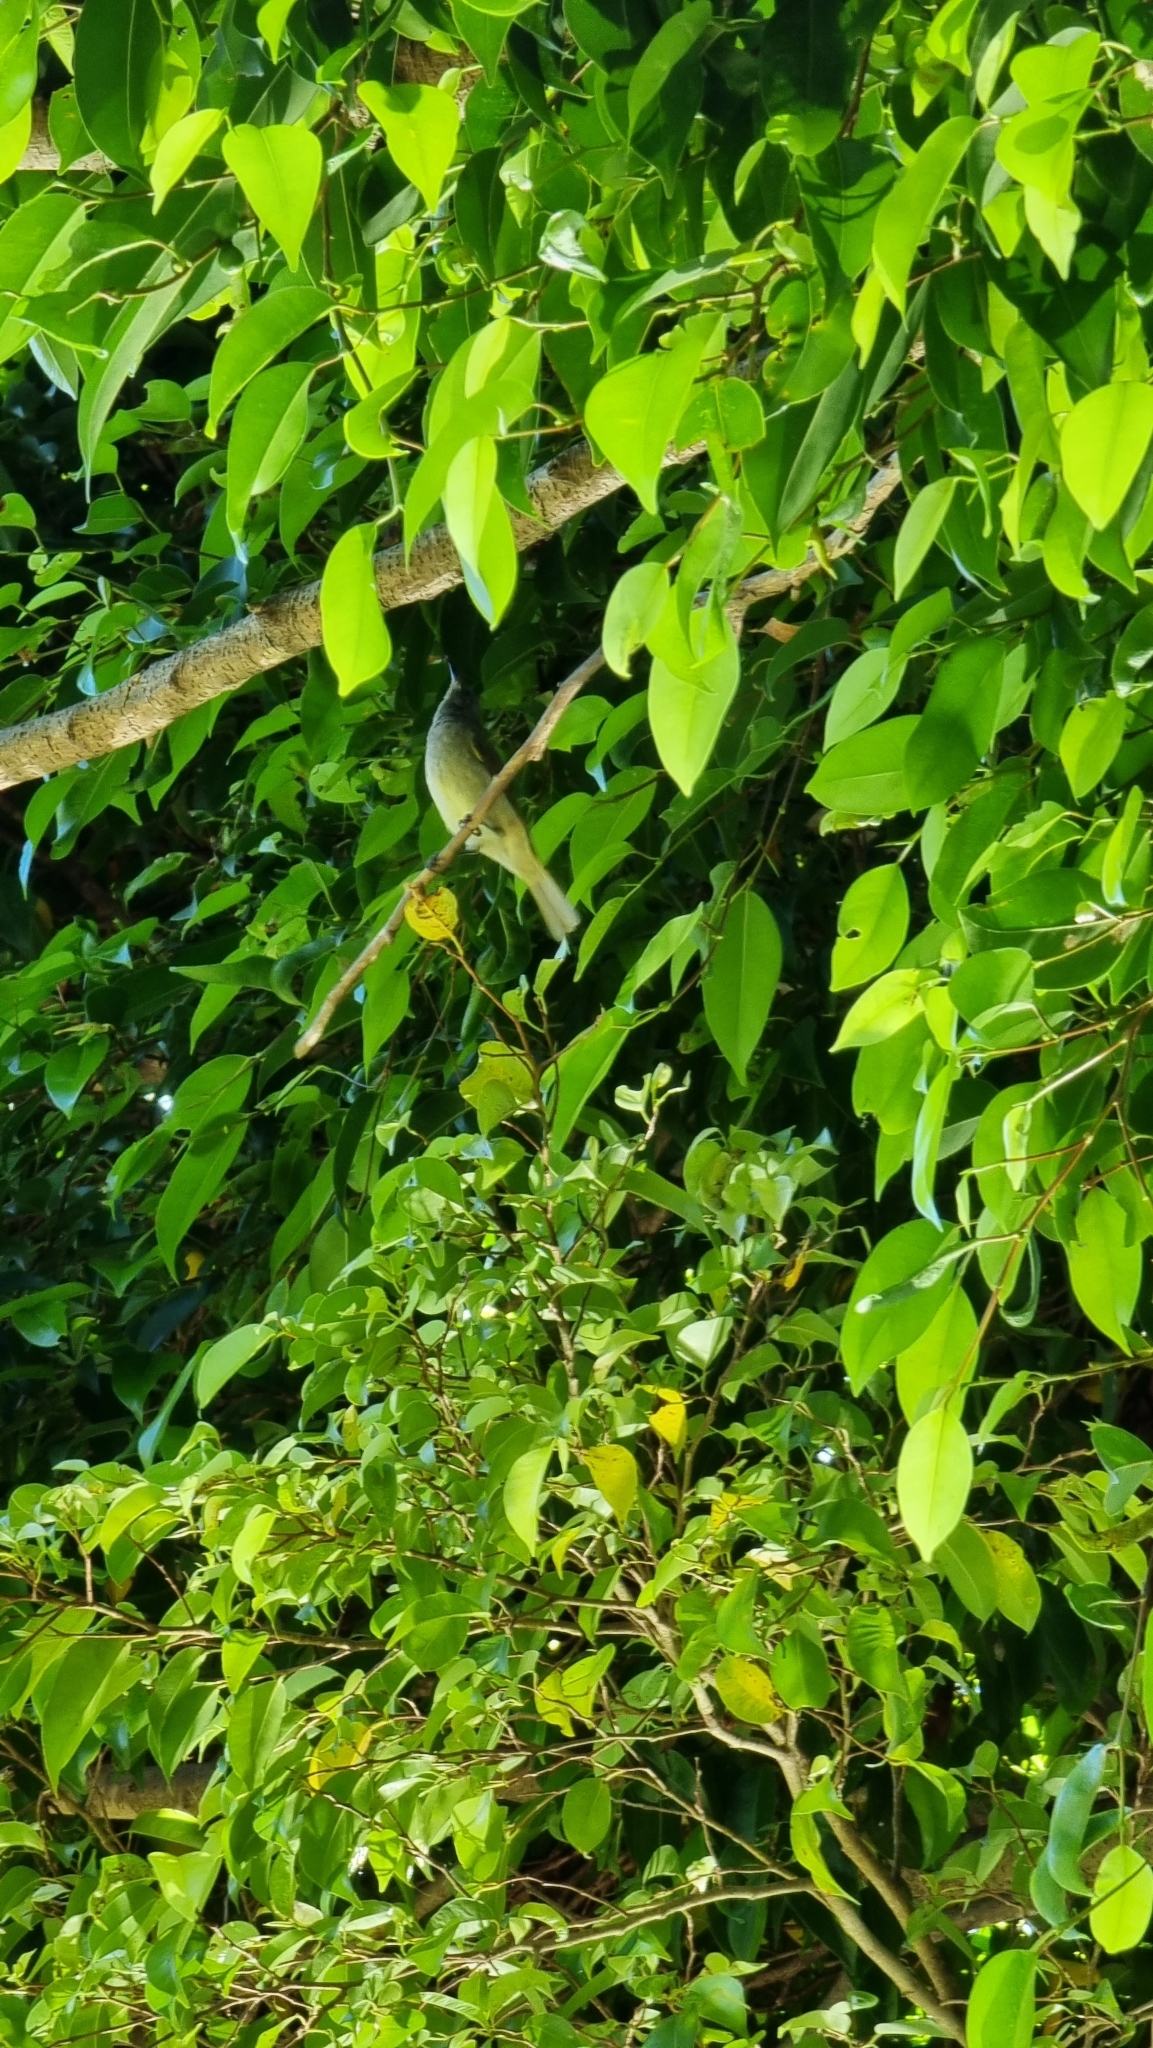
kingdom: Animalia
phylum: Chordata
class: Aves
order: Passeriformes
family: Meliphagidae
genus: Lichmera
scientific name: Lichmera indistincta
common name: Brown honeyeater
